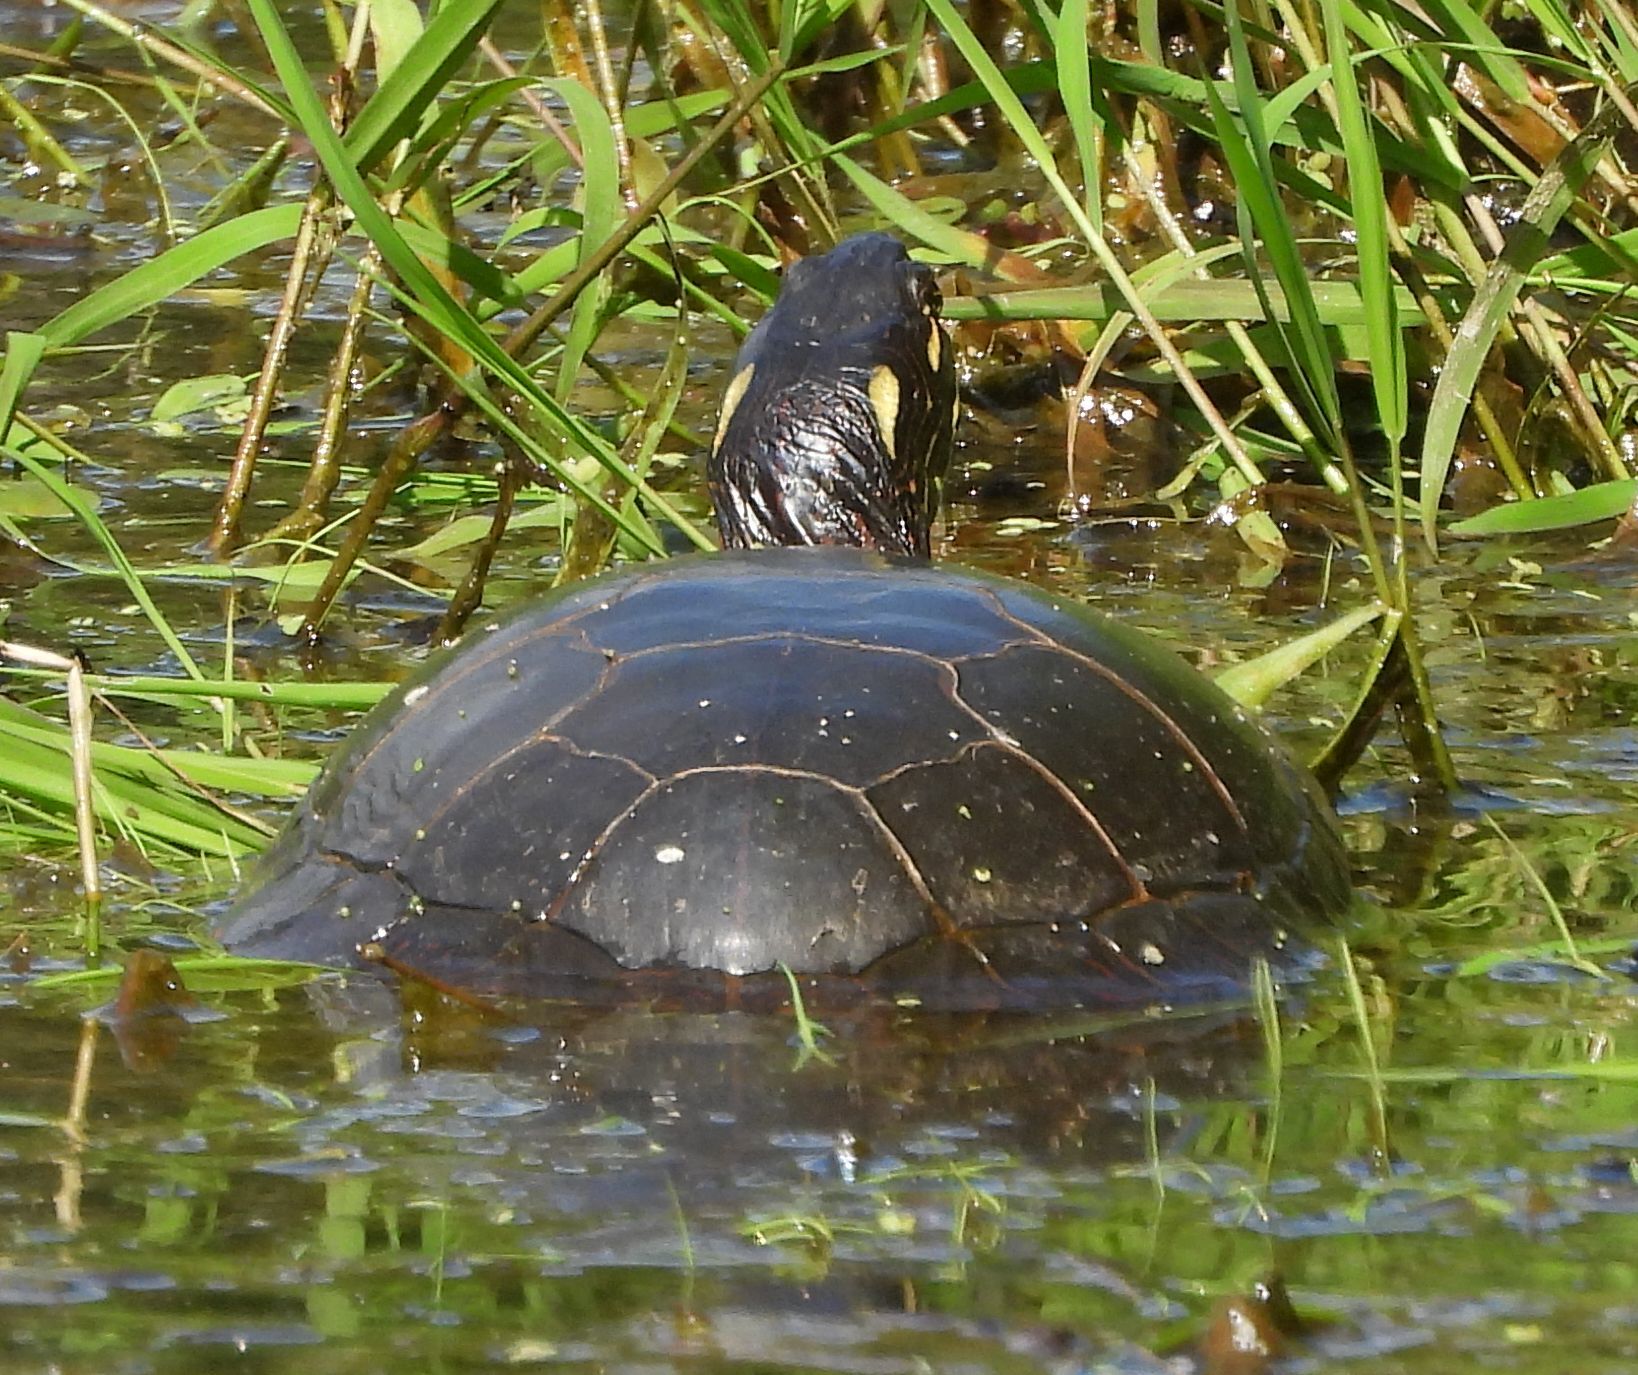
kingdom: Animalia
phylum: Chordata
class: Testudines
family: Emydidae
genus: Chrysemys
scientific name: Chrysemys picta
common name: Painted turtle
